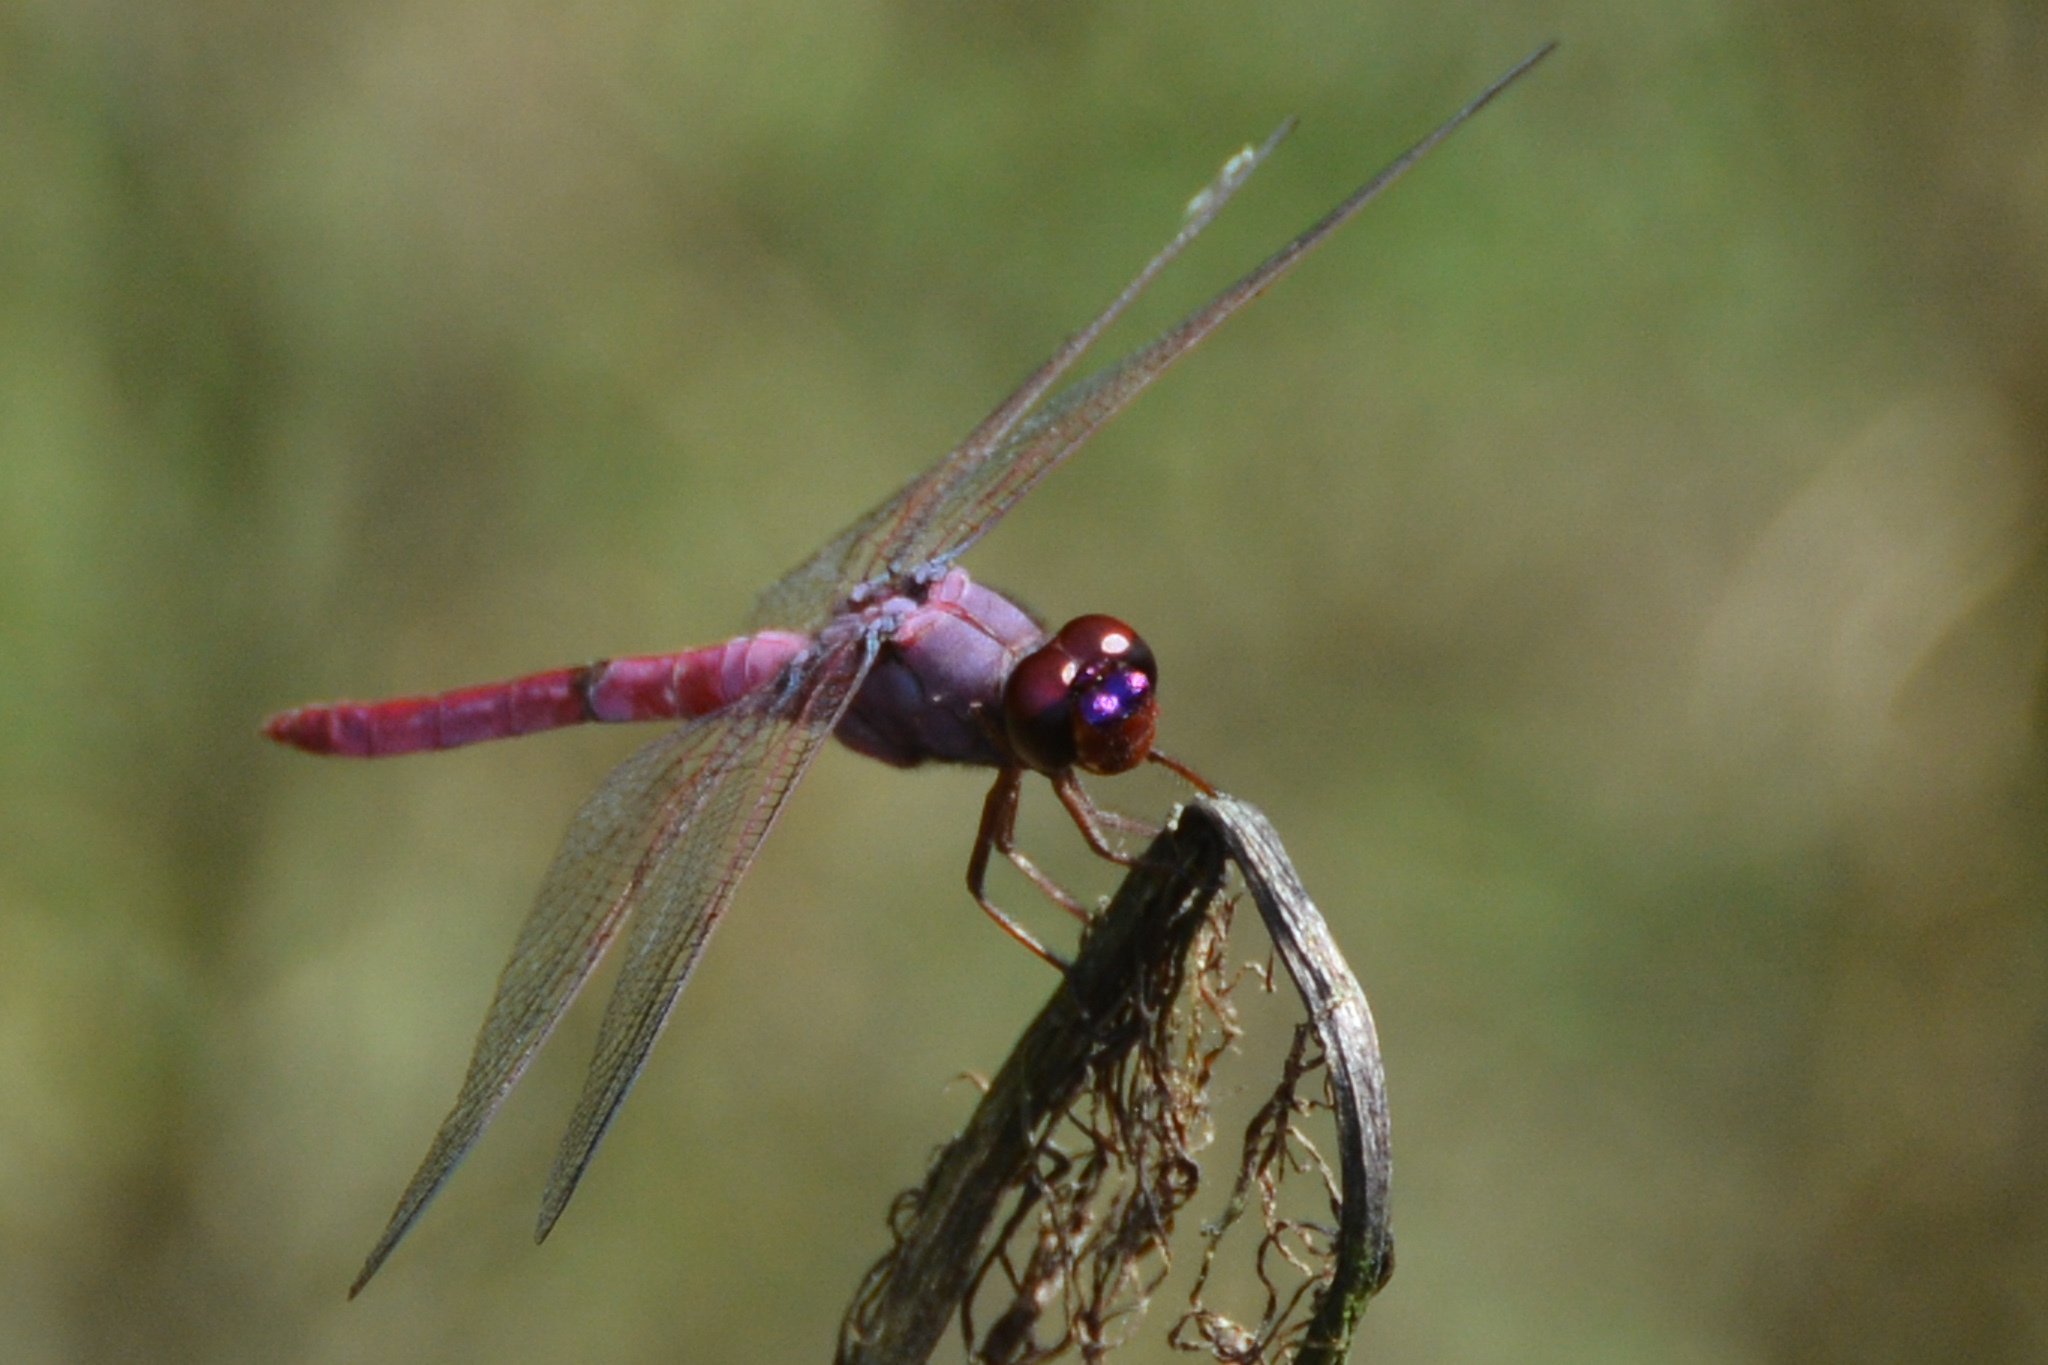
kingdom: Animalia
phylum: Arthropoda
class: Insecta
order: Odonata
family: Libellulidae
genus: Orthemis
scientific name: Orthemis ferruginea
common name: Roseate skimmer
